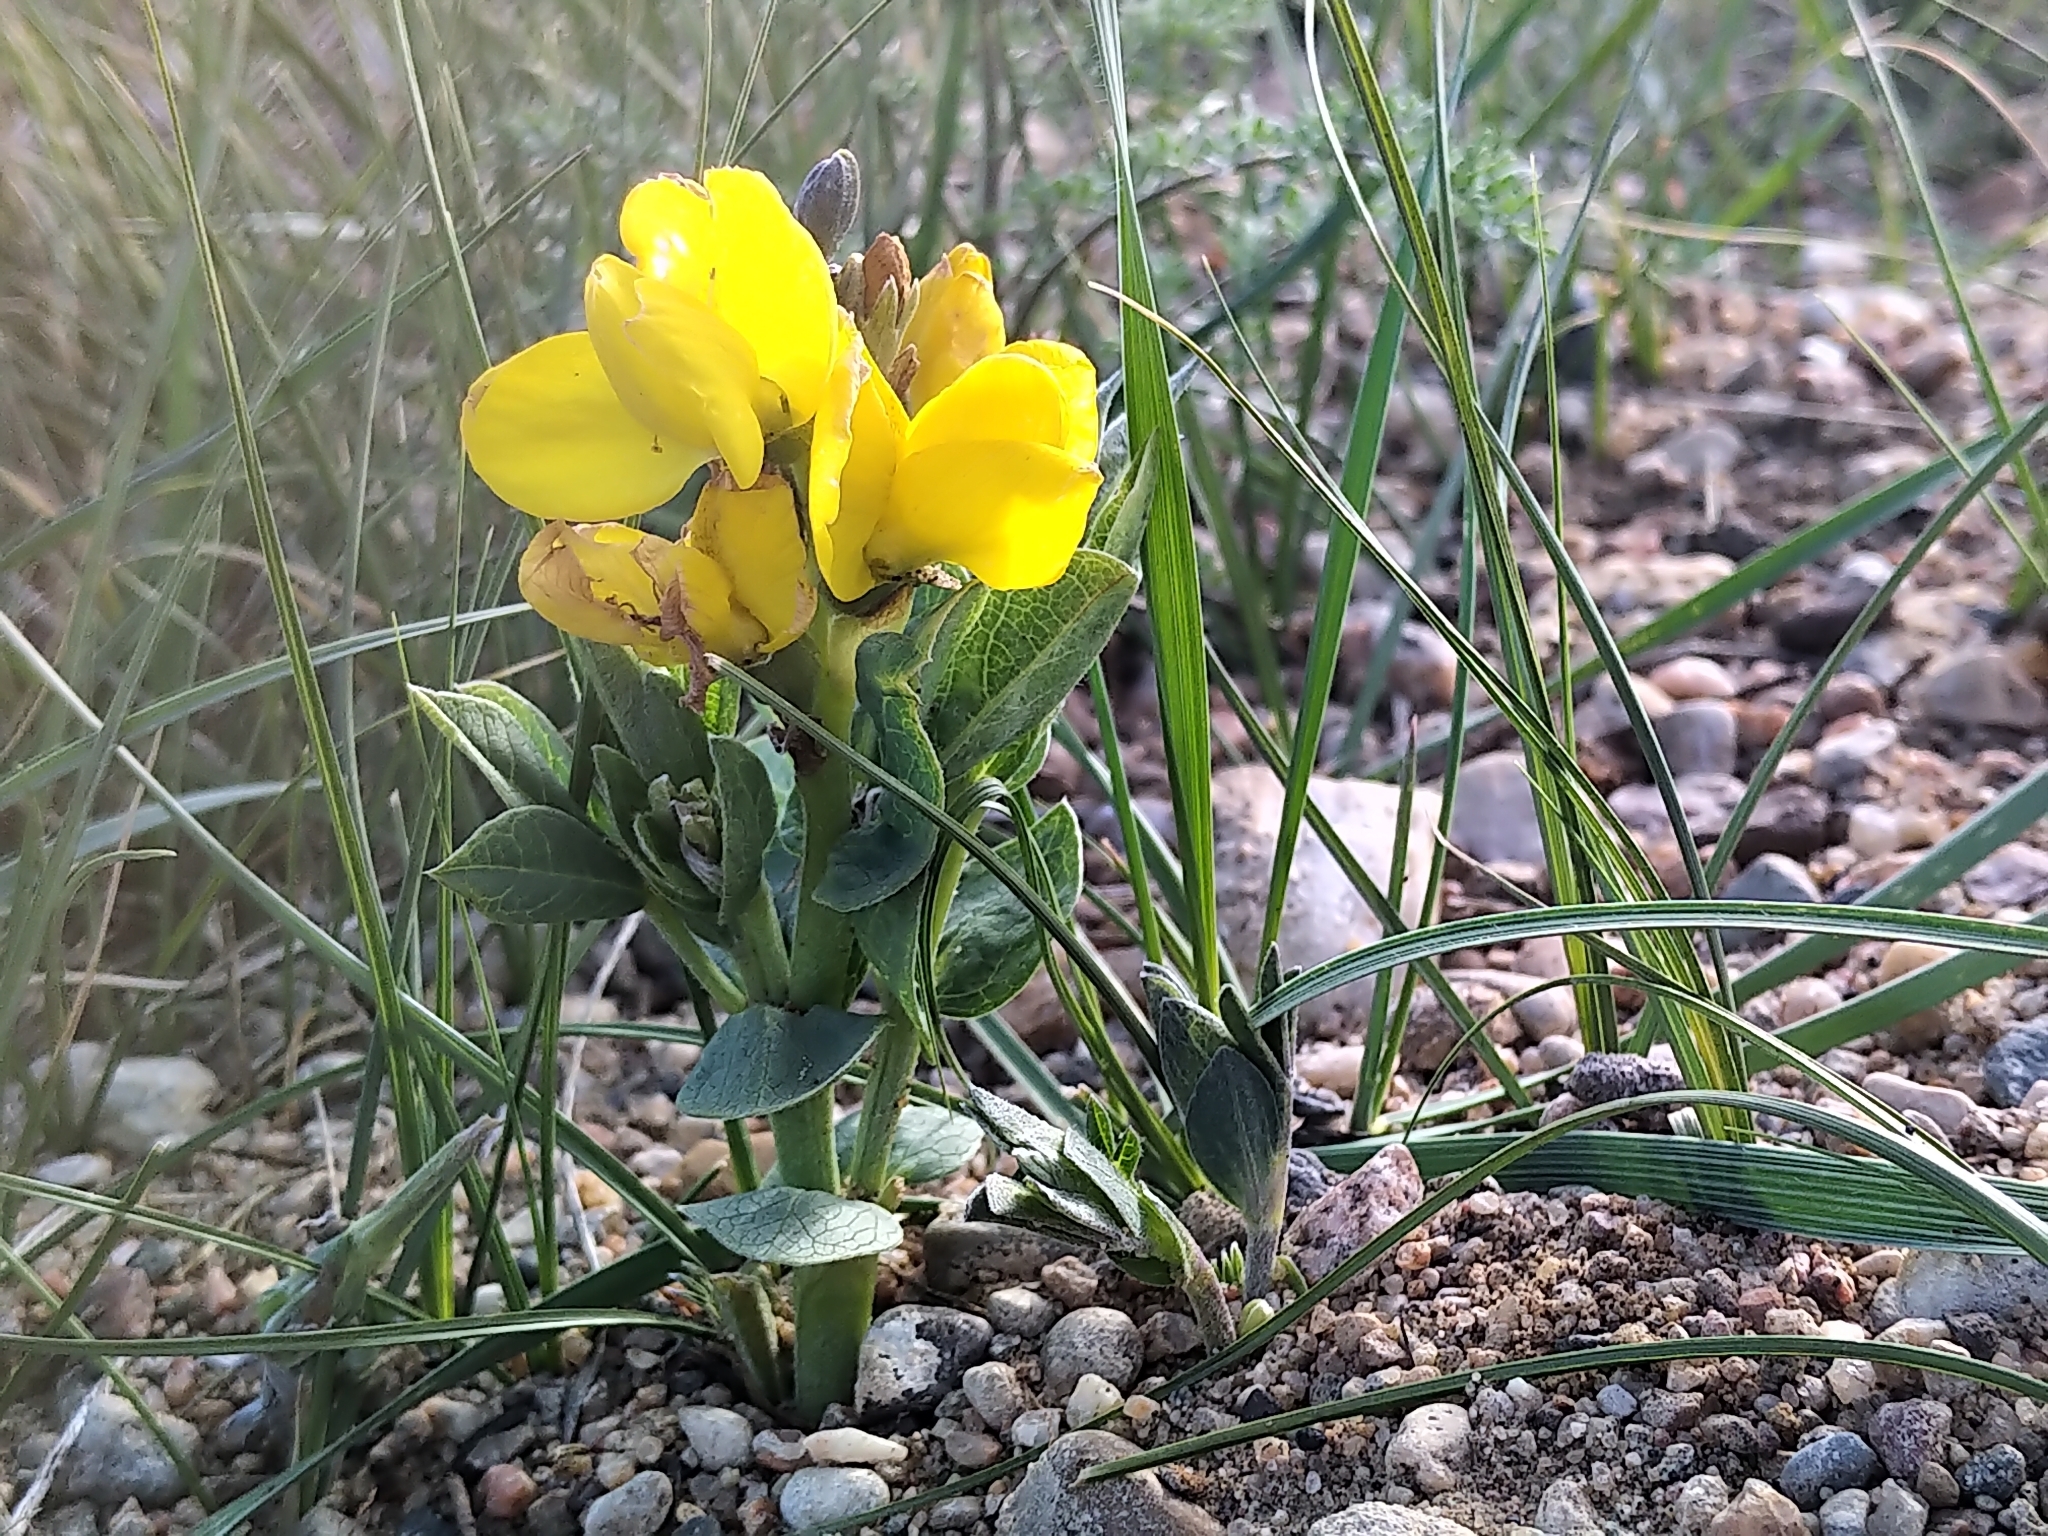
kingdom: Plantae
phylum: Tracheophyta
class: Magnoliopsida
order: Fabales
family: Fabaceae
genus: Thermopsis
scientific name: Thermopsis rhombifolia
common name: Circle-pod-pea
